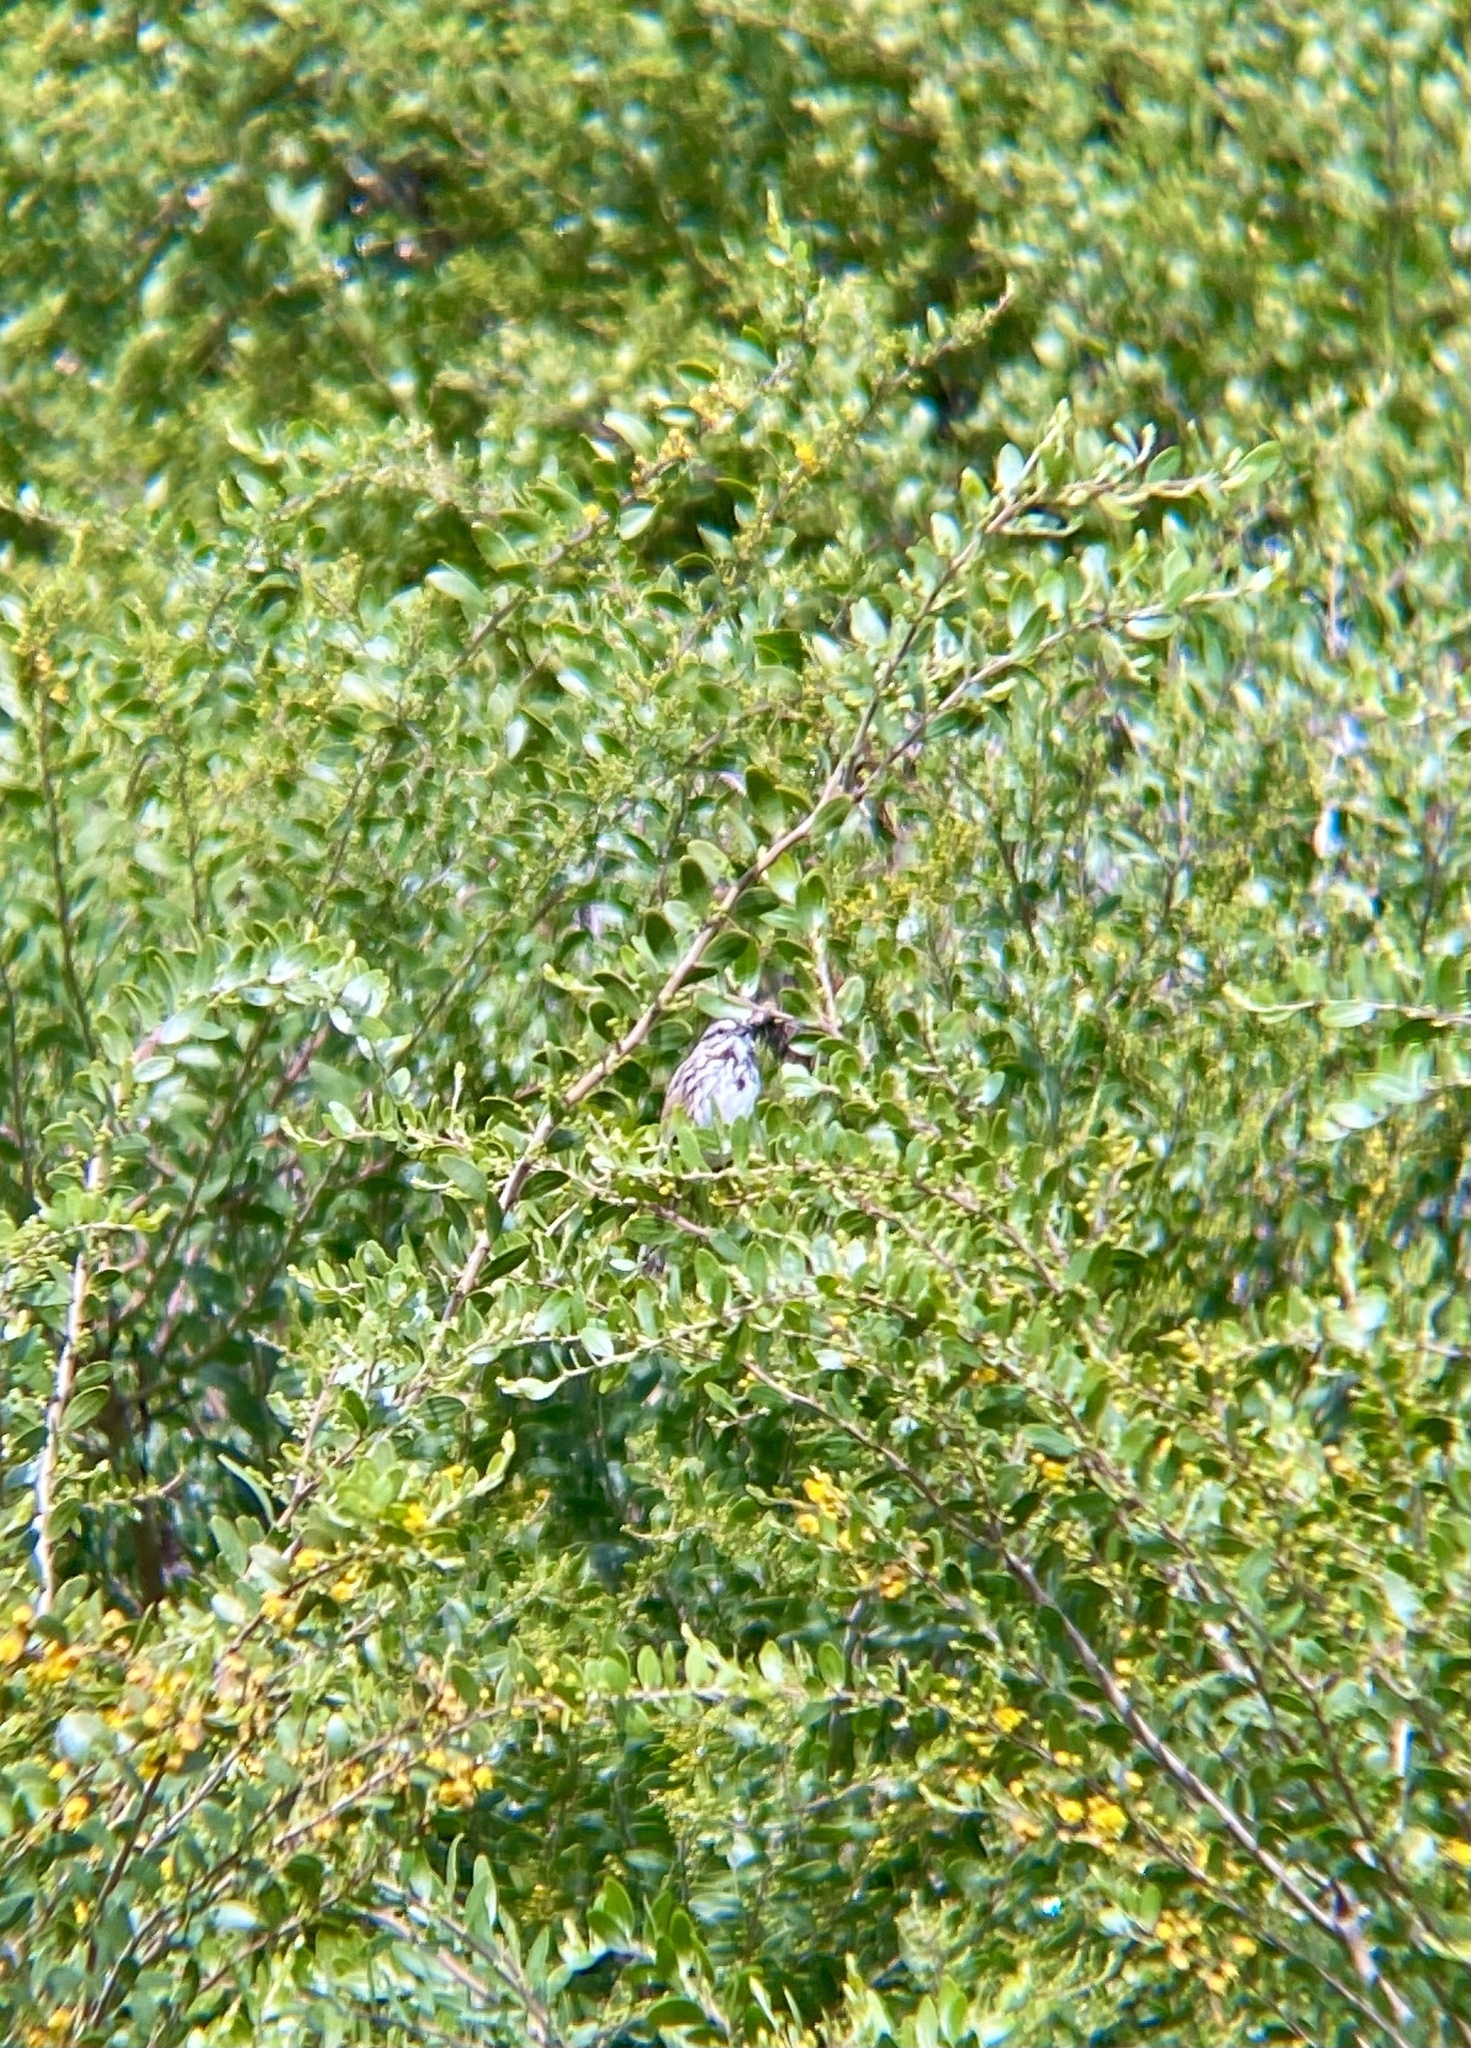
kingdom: Animalia
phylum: Chordata
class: Aves
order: Passeriformes
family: Passerellidae
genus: Melospiza
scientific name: Melospiza melodia
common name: Song sparrow
